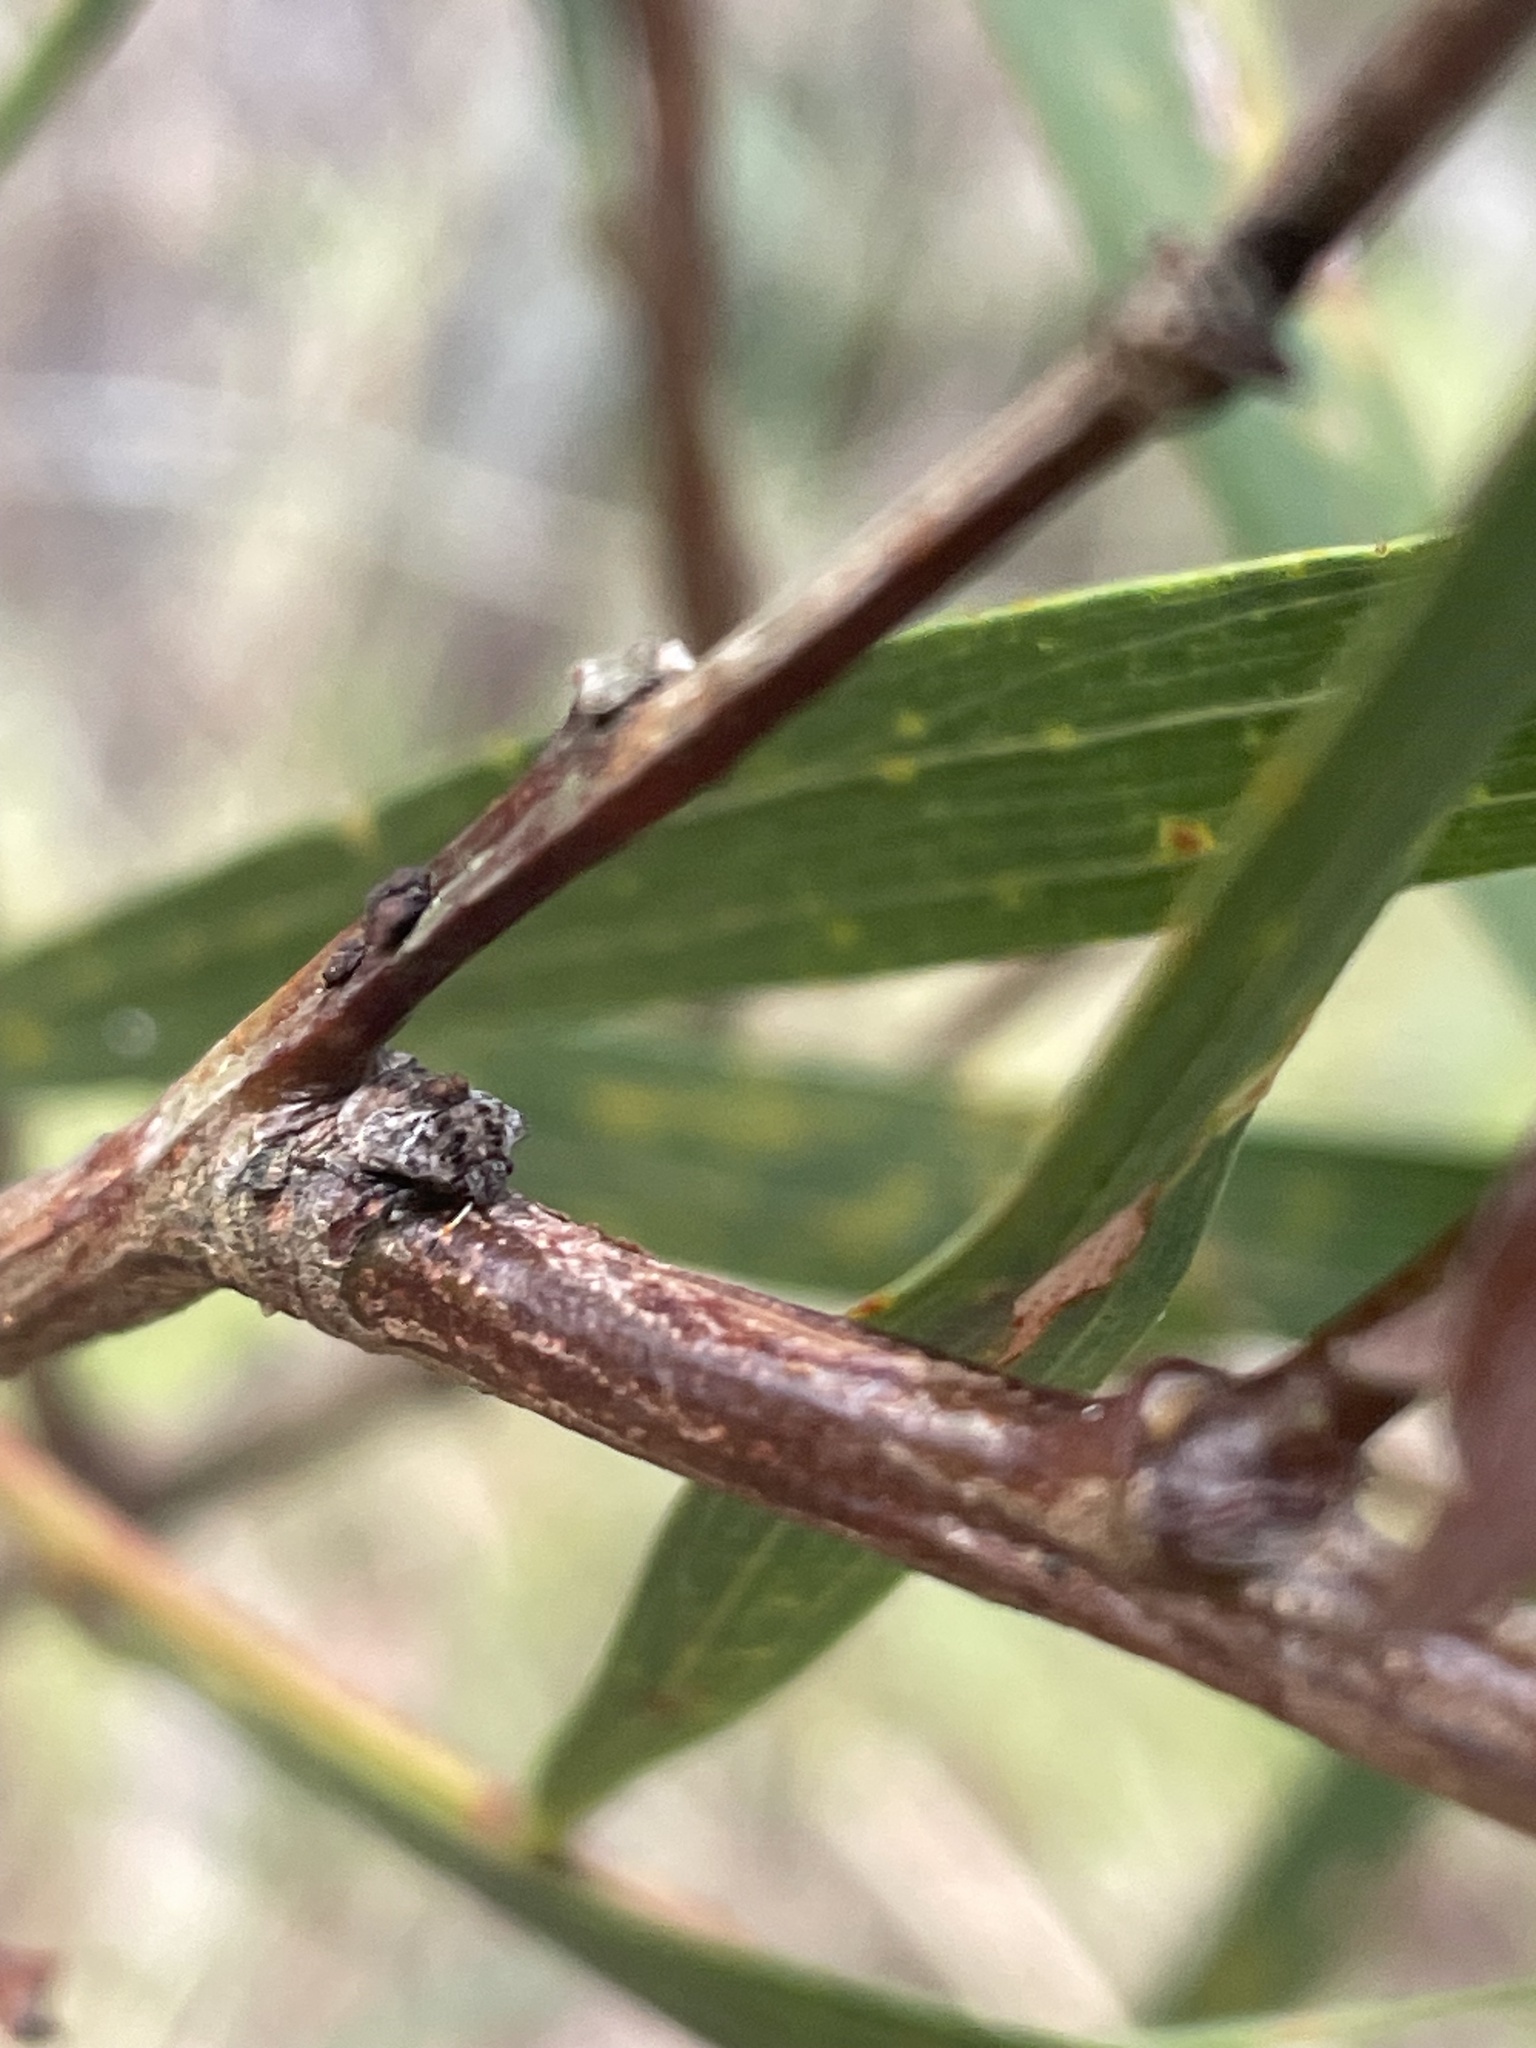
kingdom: Animalia
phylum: Arthropoda
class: Insecta
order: Hemiptera
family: Pentatomidae
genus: Eufroggattia
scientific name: Eufroggattia
